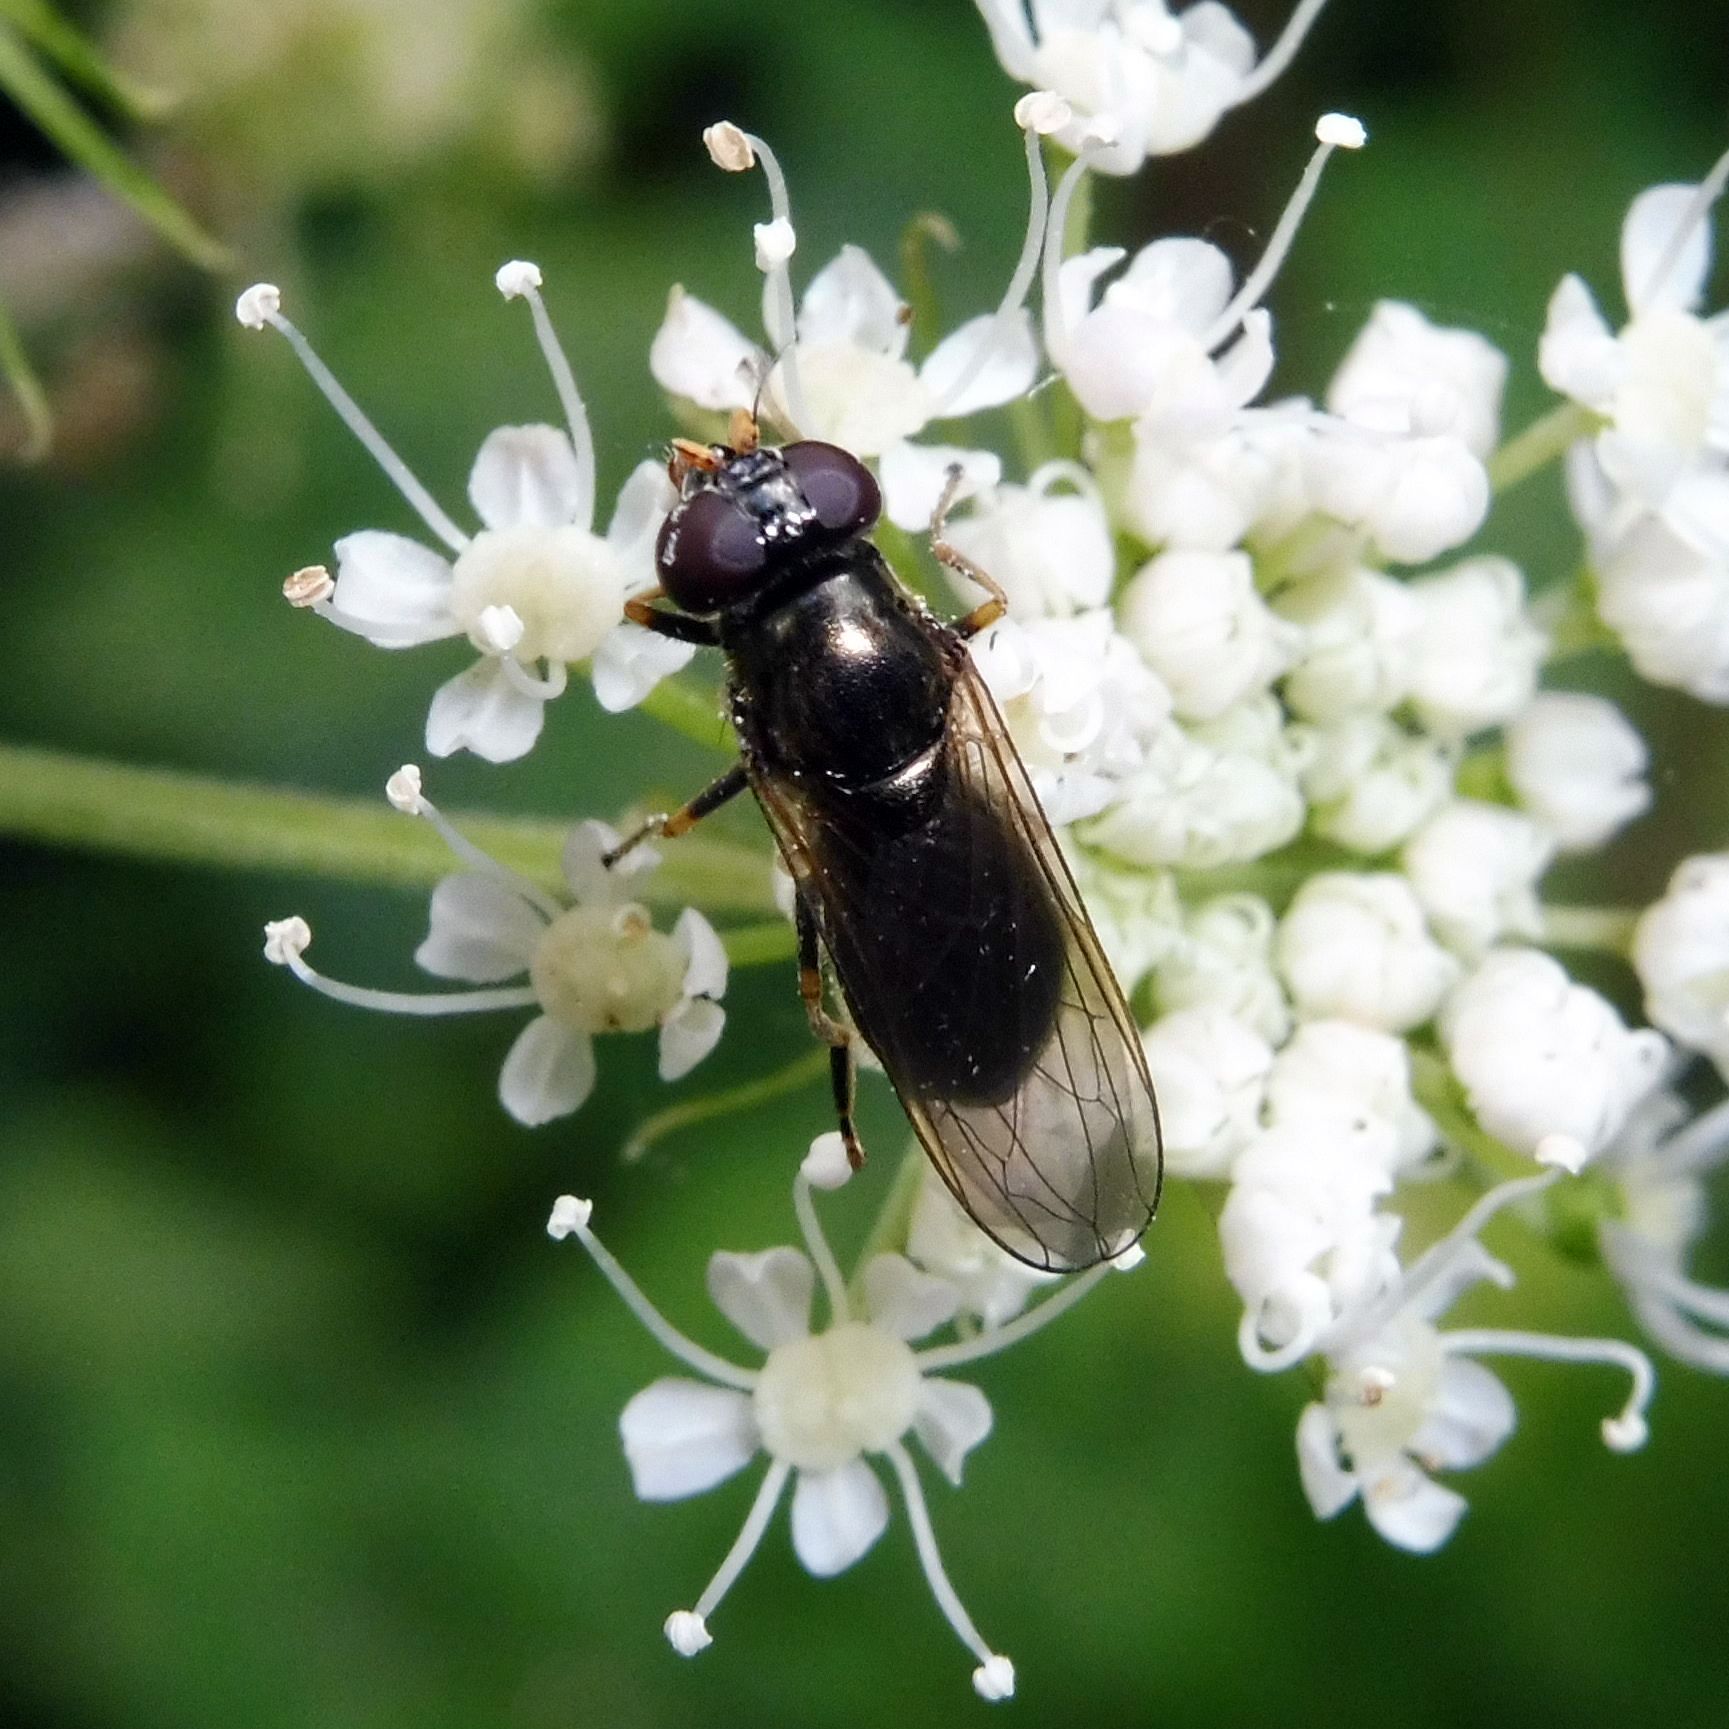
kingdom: Animalia
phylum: Arthropoda
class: Insecta
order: Diptera
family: Syrphidae
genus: Cheilosia
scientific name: Cheilosia pagana
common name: Hover fly
